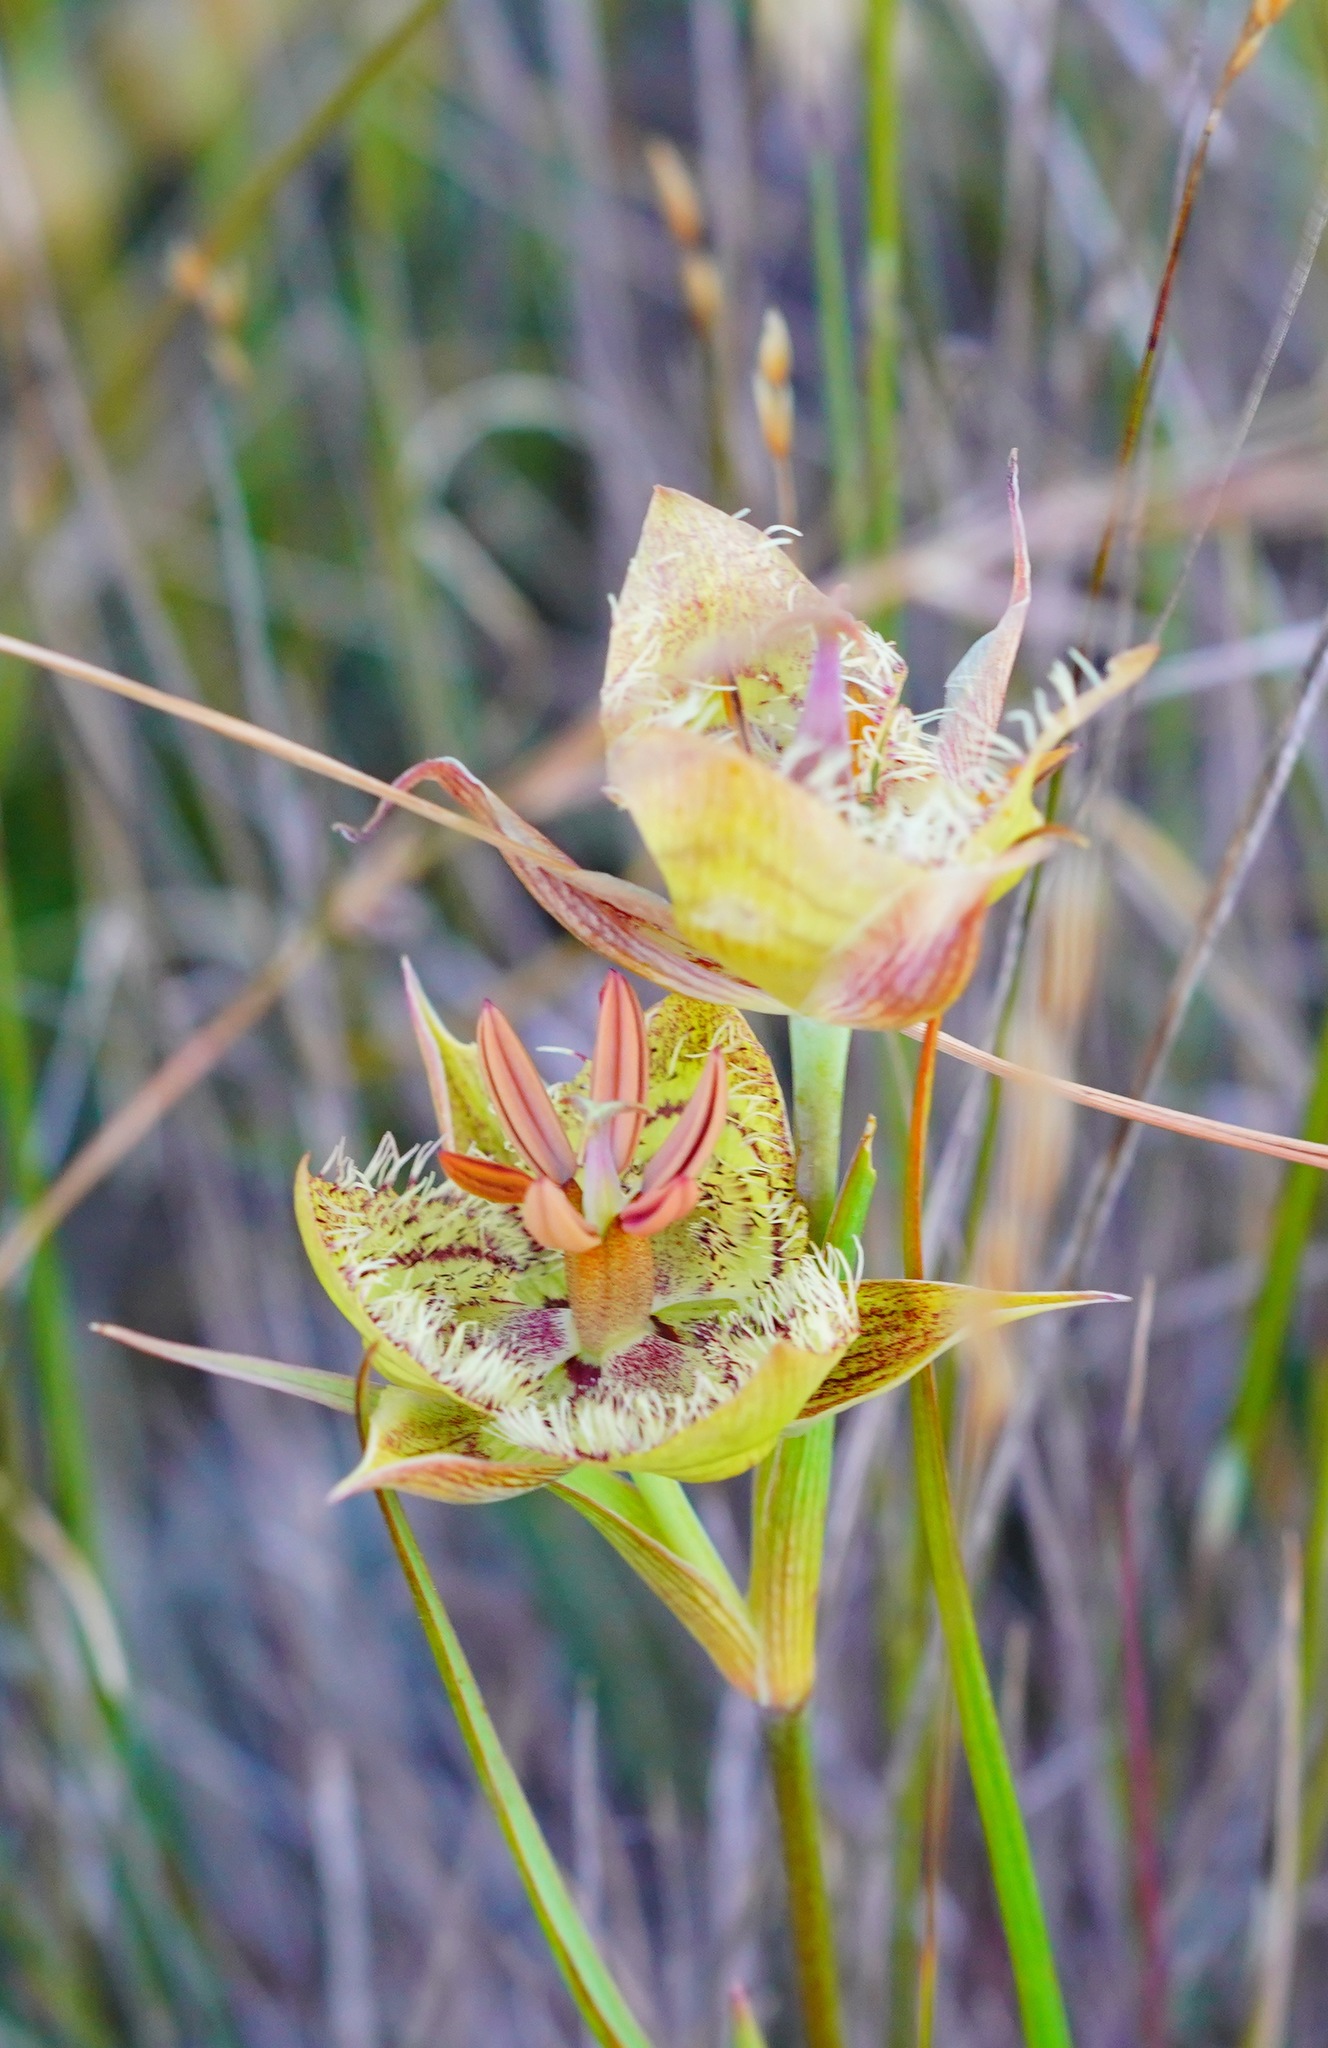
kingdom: Plantae
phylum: Tracheophyta
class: Liliopsida
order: Liliales
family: Liliaceae
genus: Calochortus
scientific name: Calochortus tiburonensis
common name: Tiburon mariposa-lily
